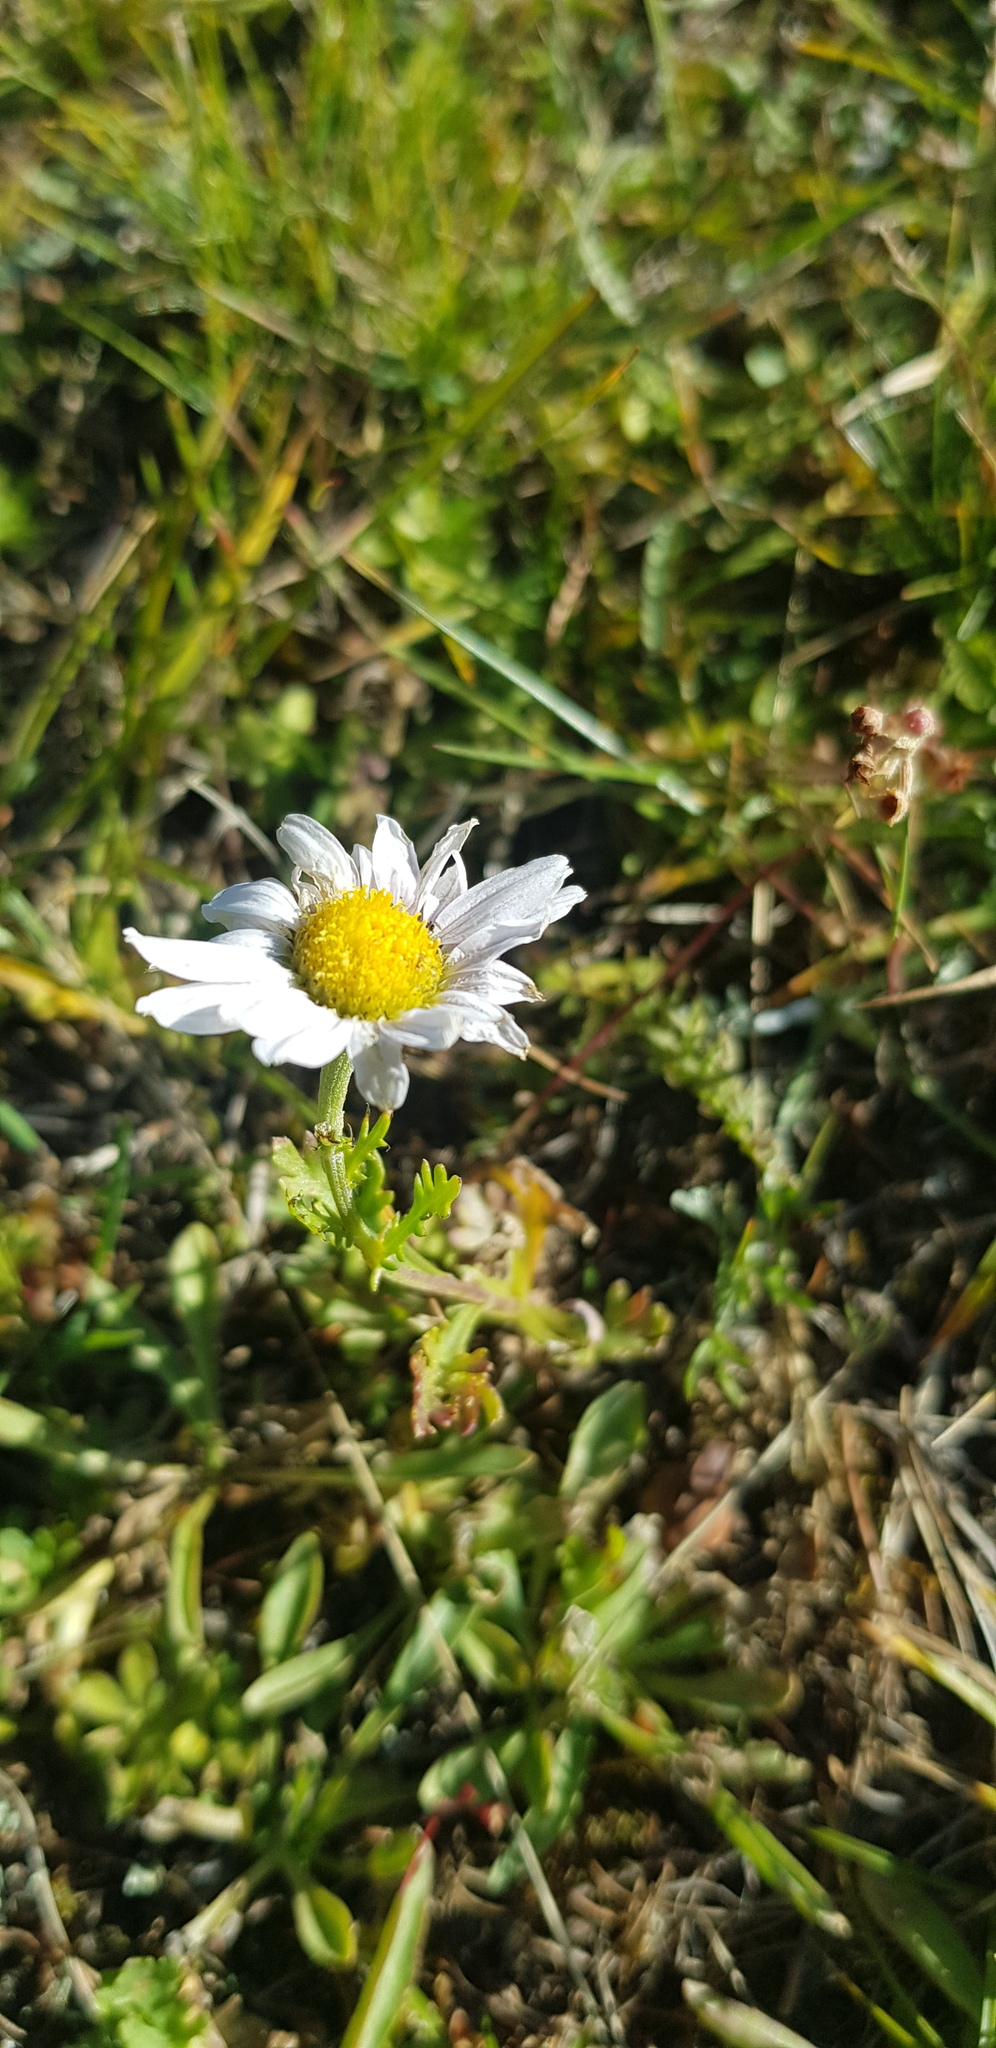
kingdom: Plantae
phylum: Tracheophyta
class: Magnoliopsida
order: Asterales
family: Asteraceae
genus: Chrysanthemum
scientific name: Chrysanthemum zawadzkii
